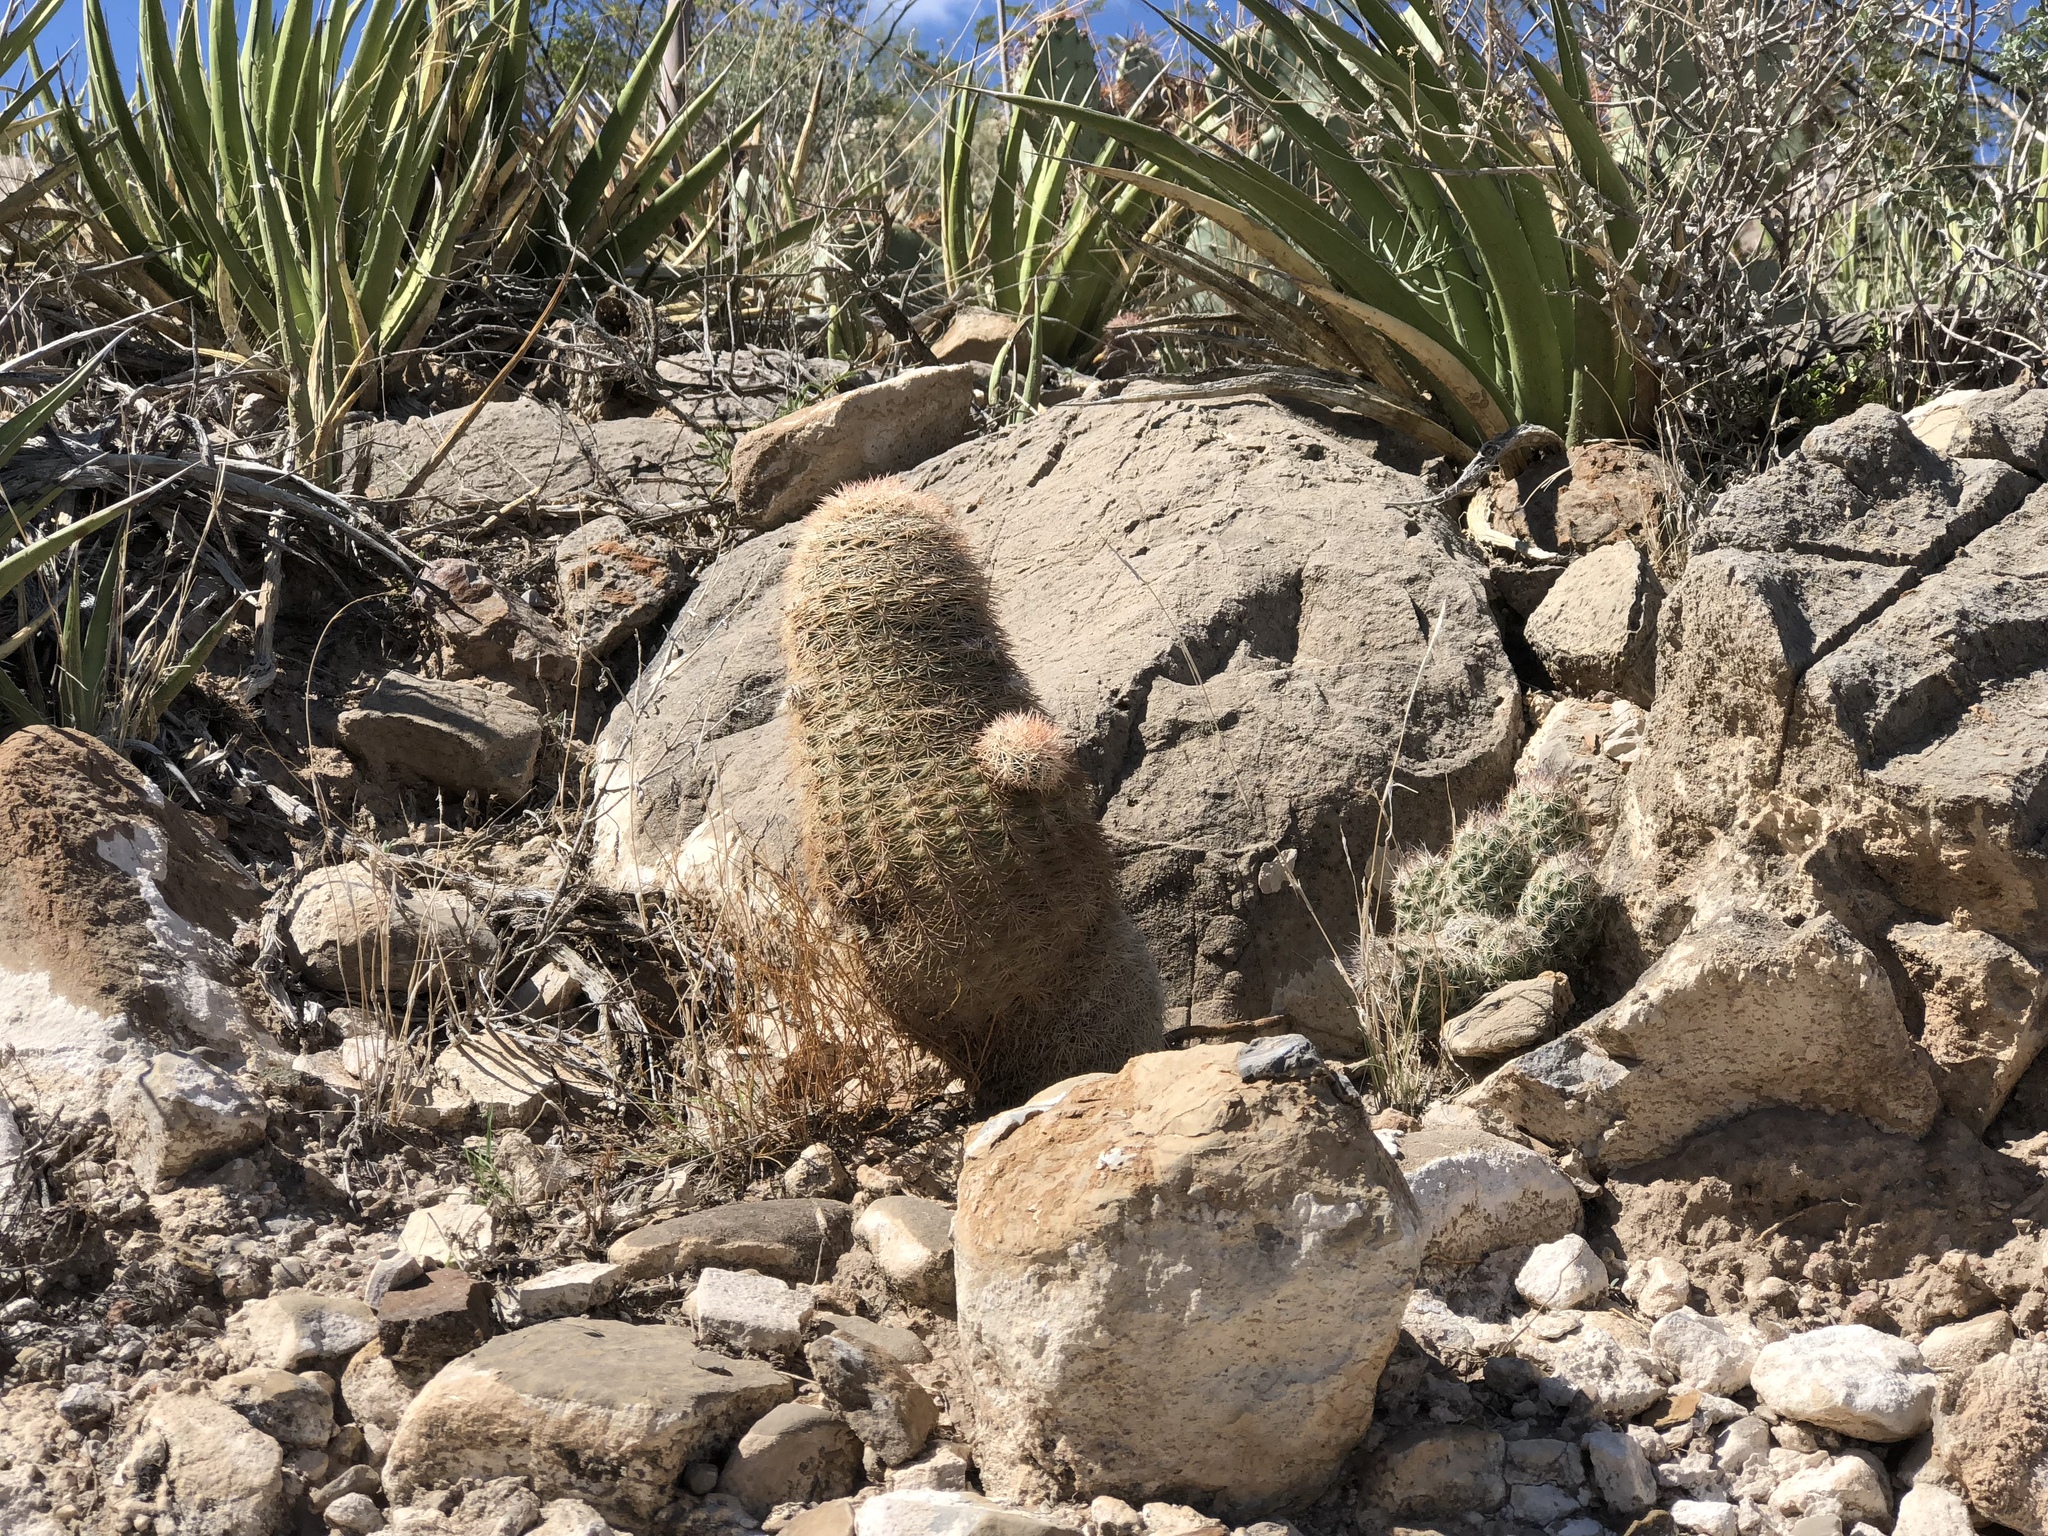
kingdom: Plantae
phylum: Tracheophyta
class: Magnoliopsida
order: Caryophyllales
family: Cactaceae
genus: Echinocereus
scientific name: Echinocereus dasyacanthus
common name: Spiny hedgehog cactus
